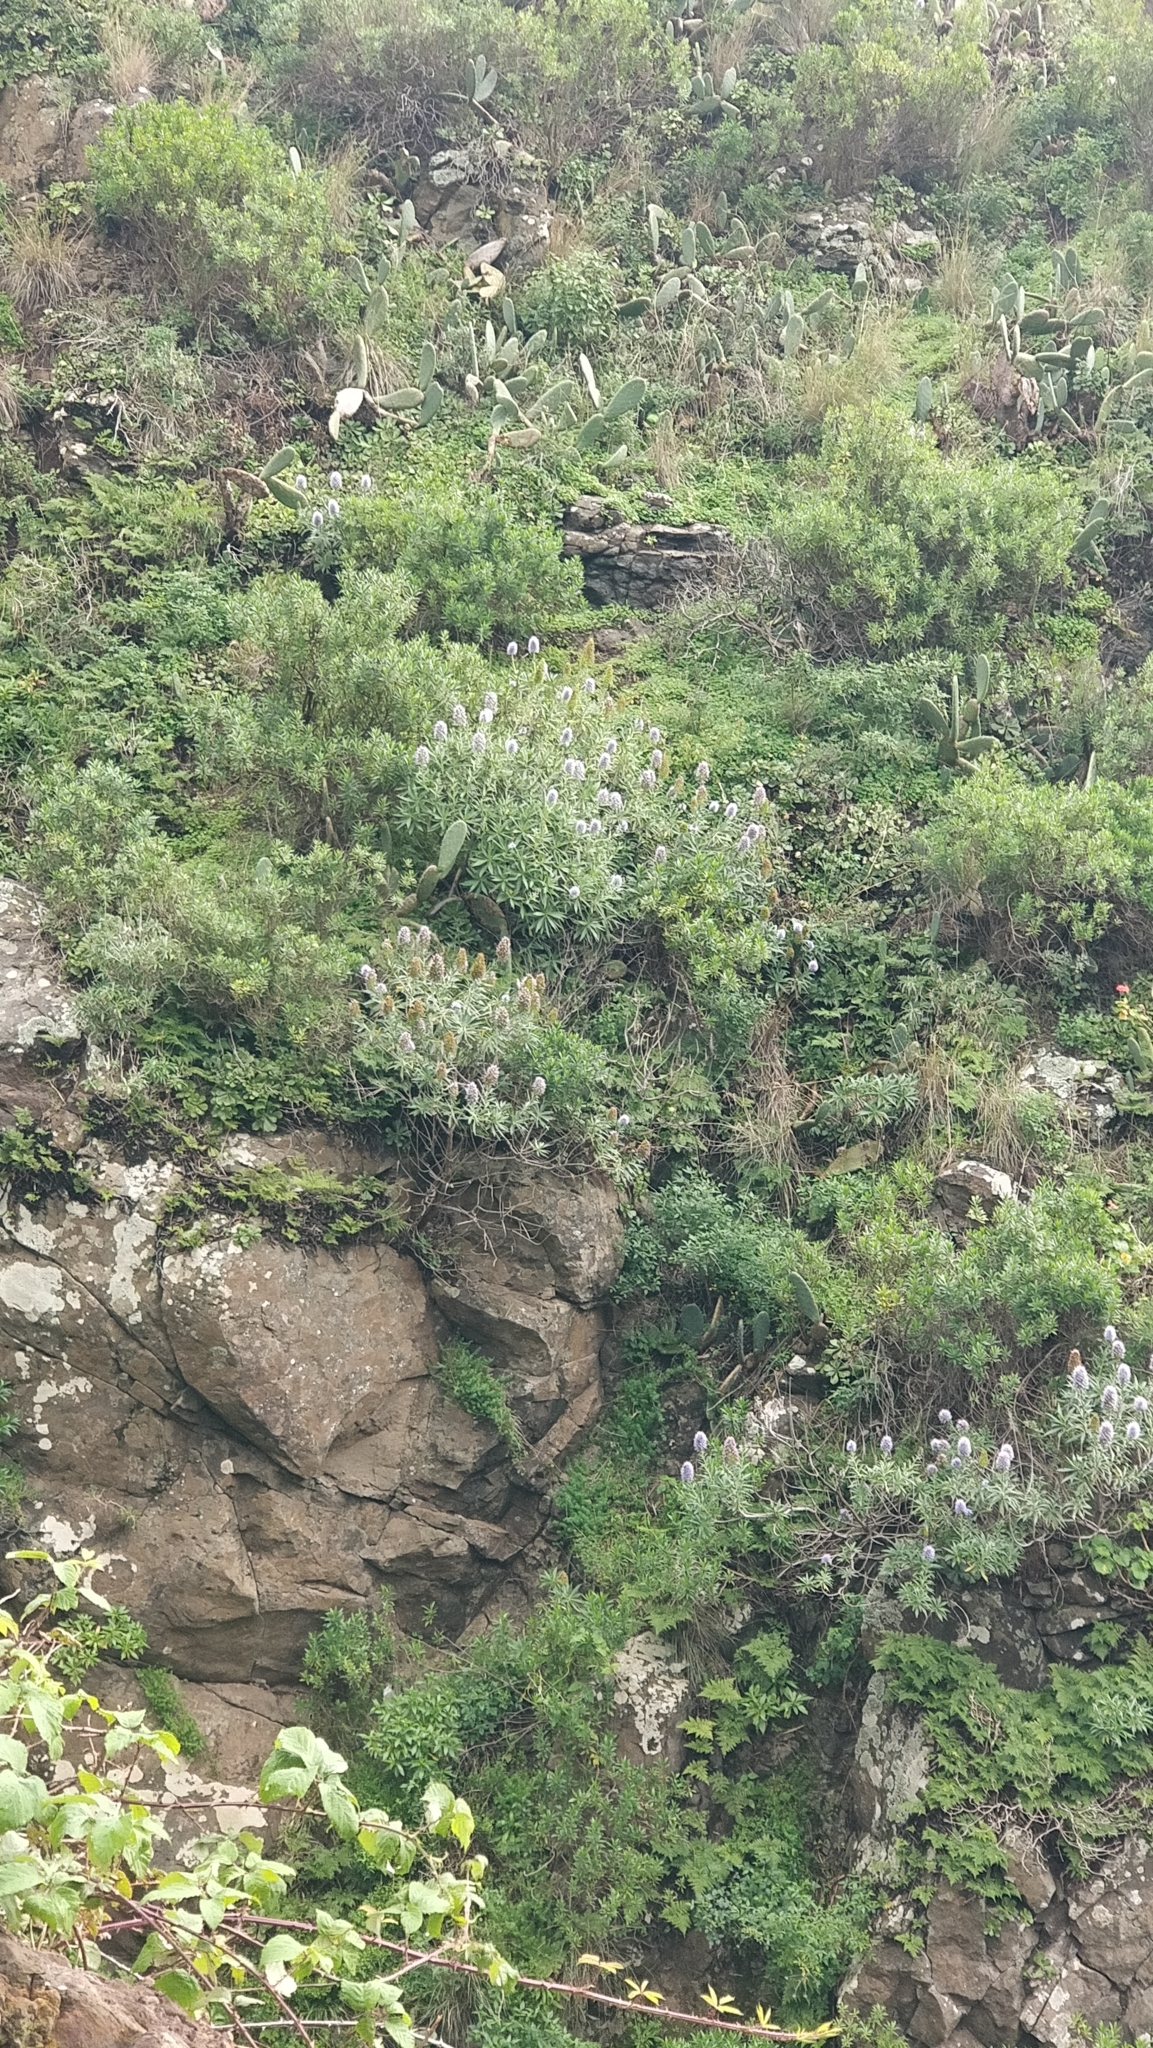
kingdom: Plantae
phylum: Tracheophyta
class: Magnoliopsida
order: Boraginales
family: Boraginaceae
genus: Echium
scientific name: Echium nervosum
